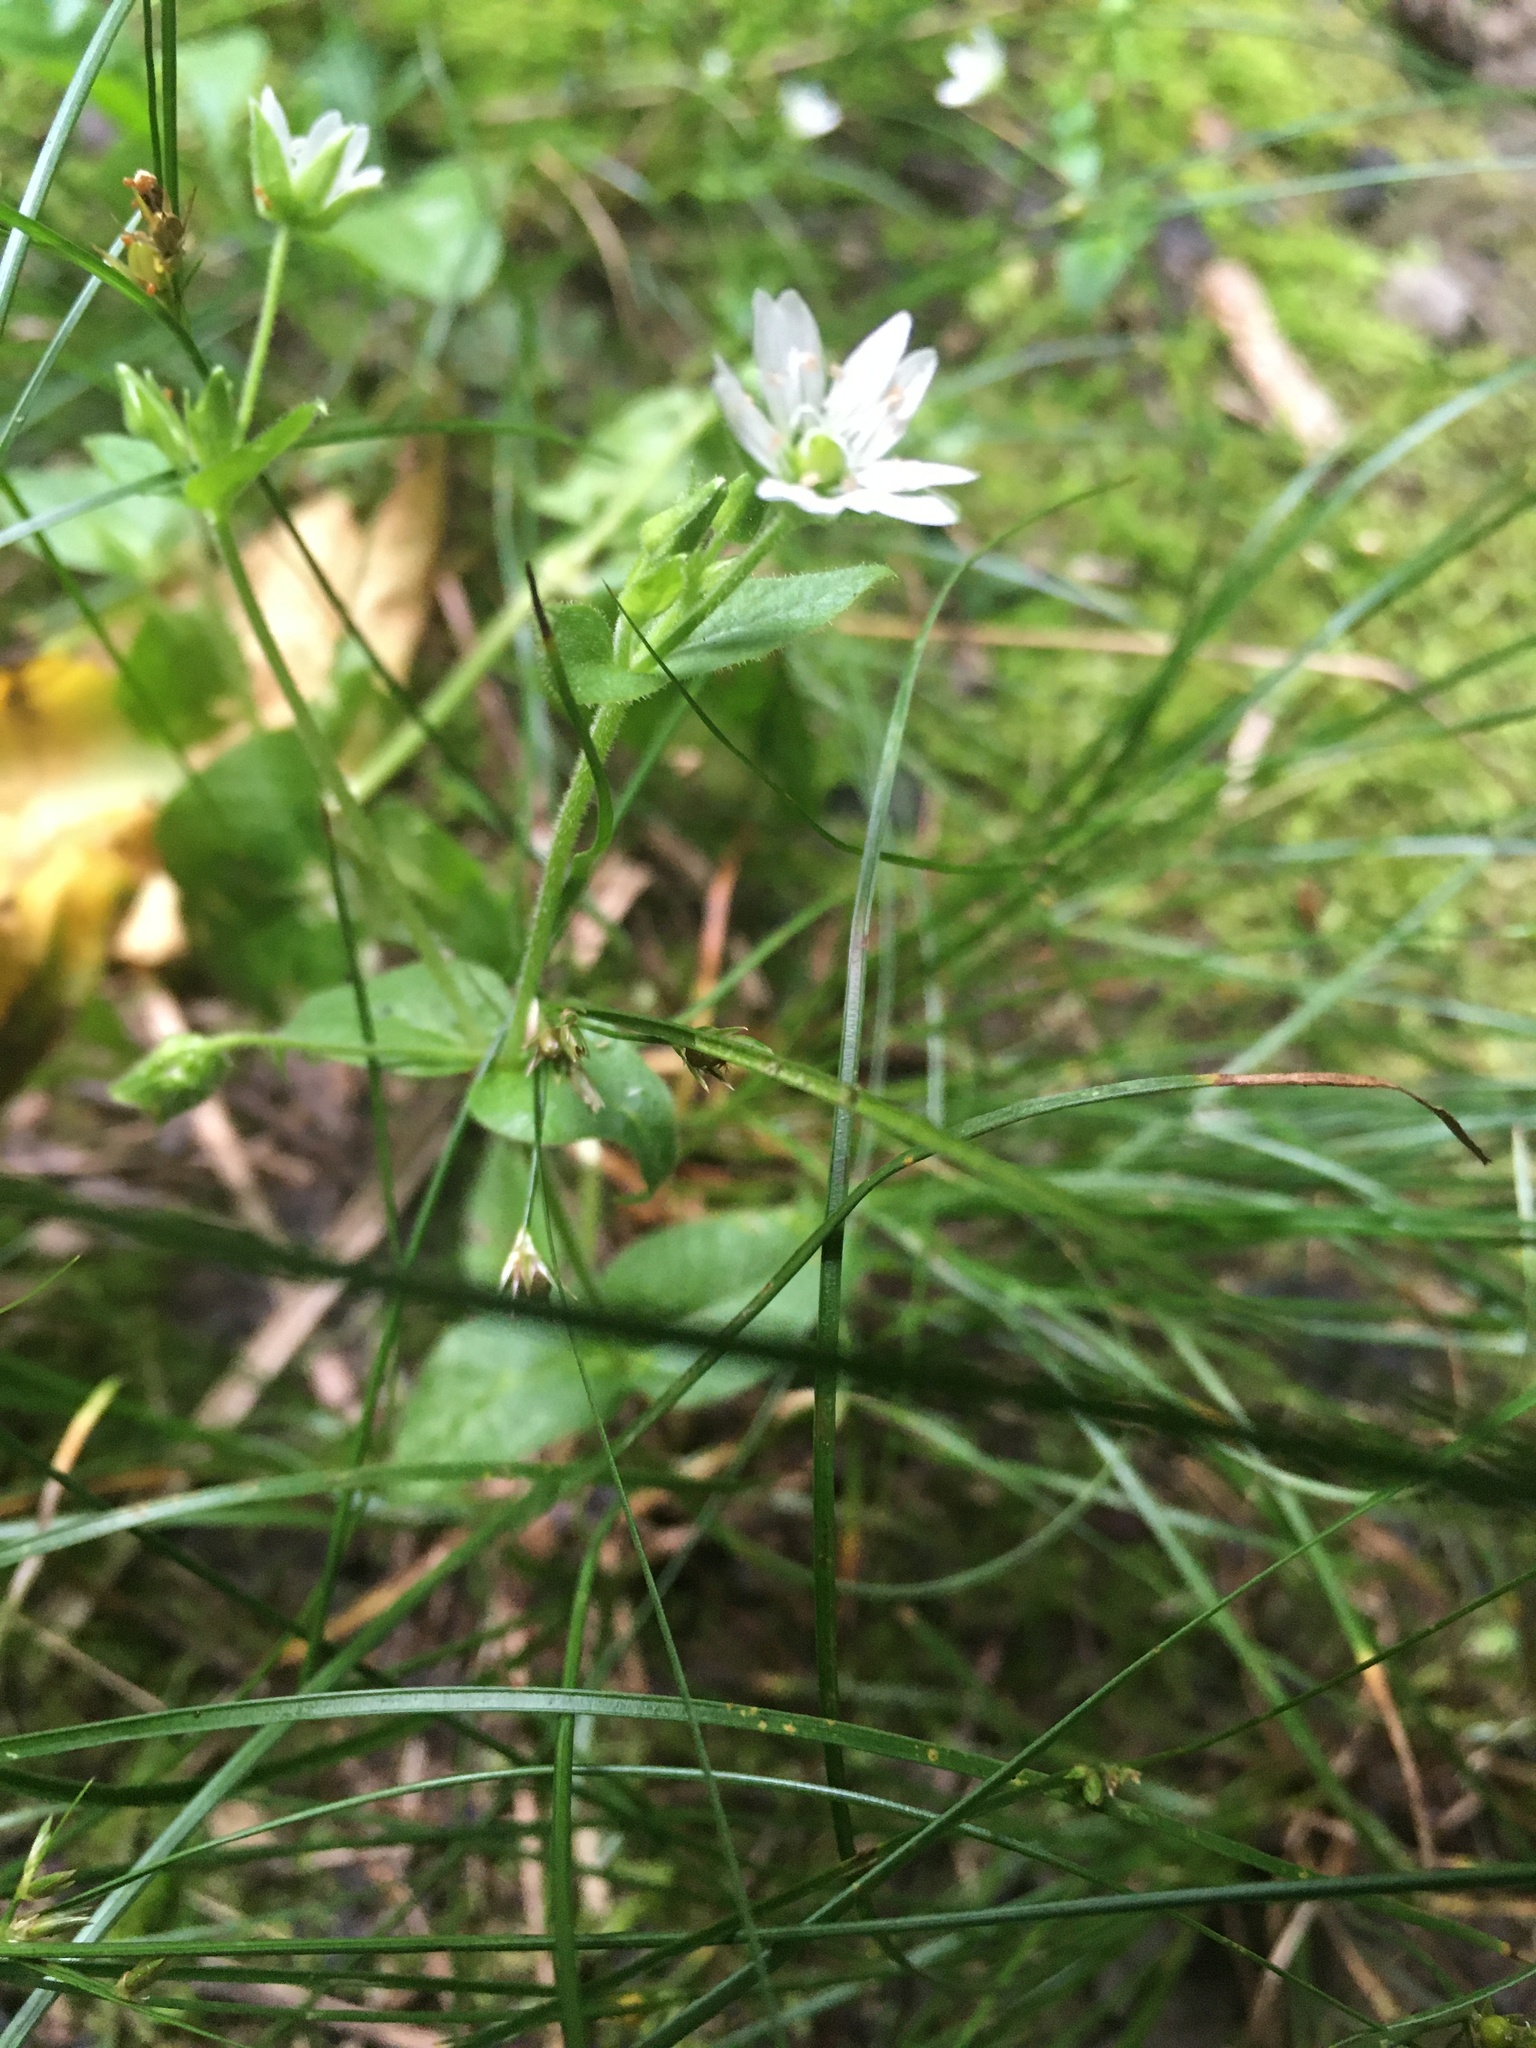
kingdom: Plantae
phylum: Tracheophyta
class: Magnoliopsida
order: Caryophyllales
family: Caryophyllaceae
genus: Stellaria
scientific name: Stellaria media
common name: Common chickweed
